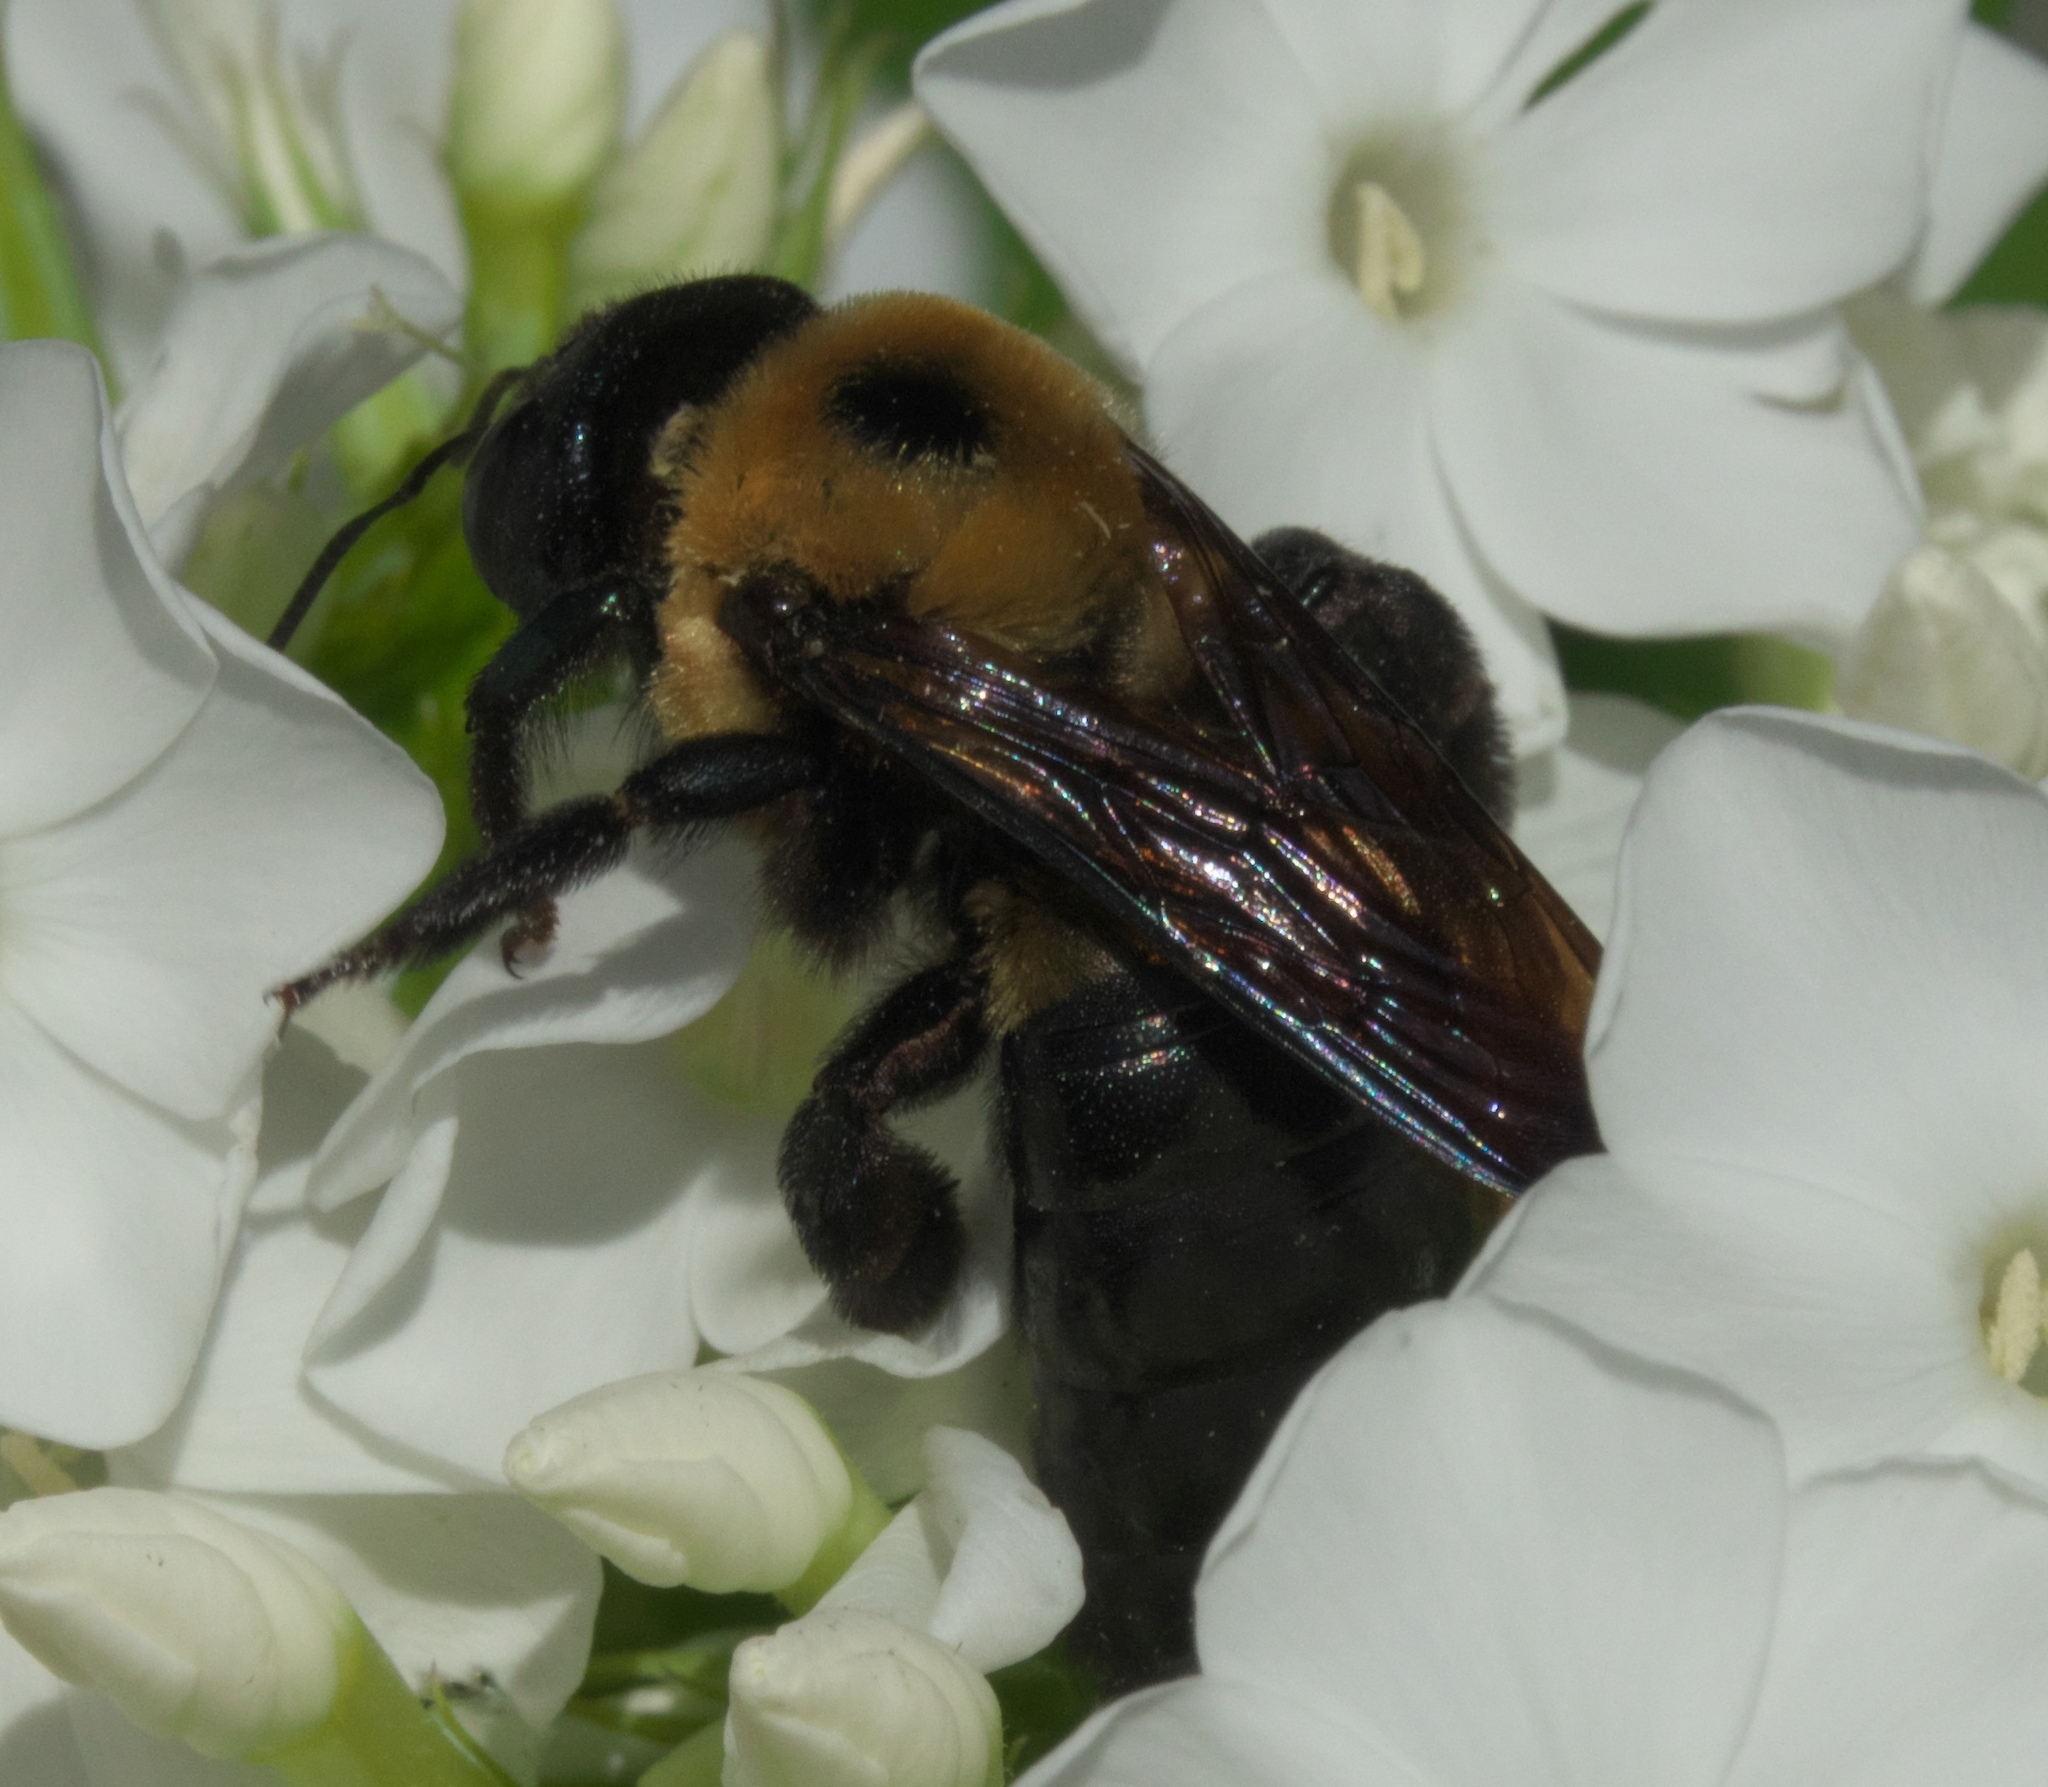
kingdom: Animalia
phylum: Arthropoda
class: Insecta
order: Hymenoptera
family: Apidae
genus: Xylocopa
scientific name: Xylocopa virginica
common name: Carpenter bee
